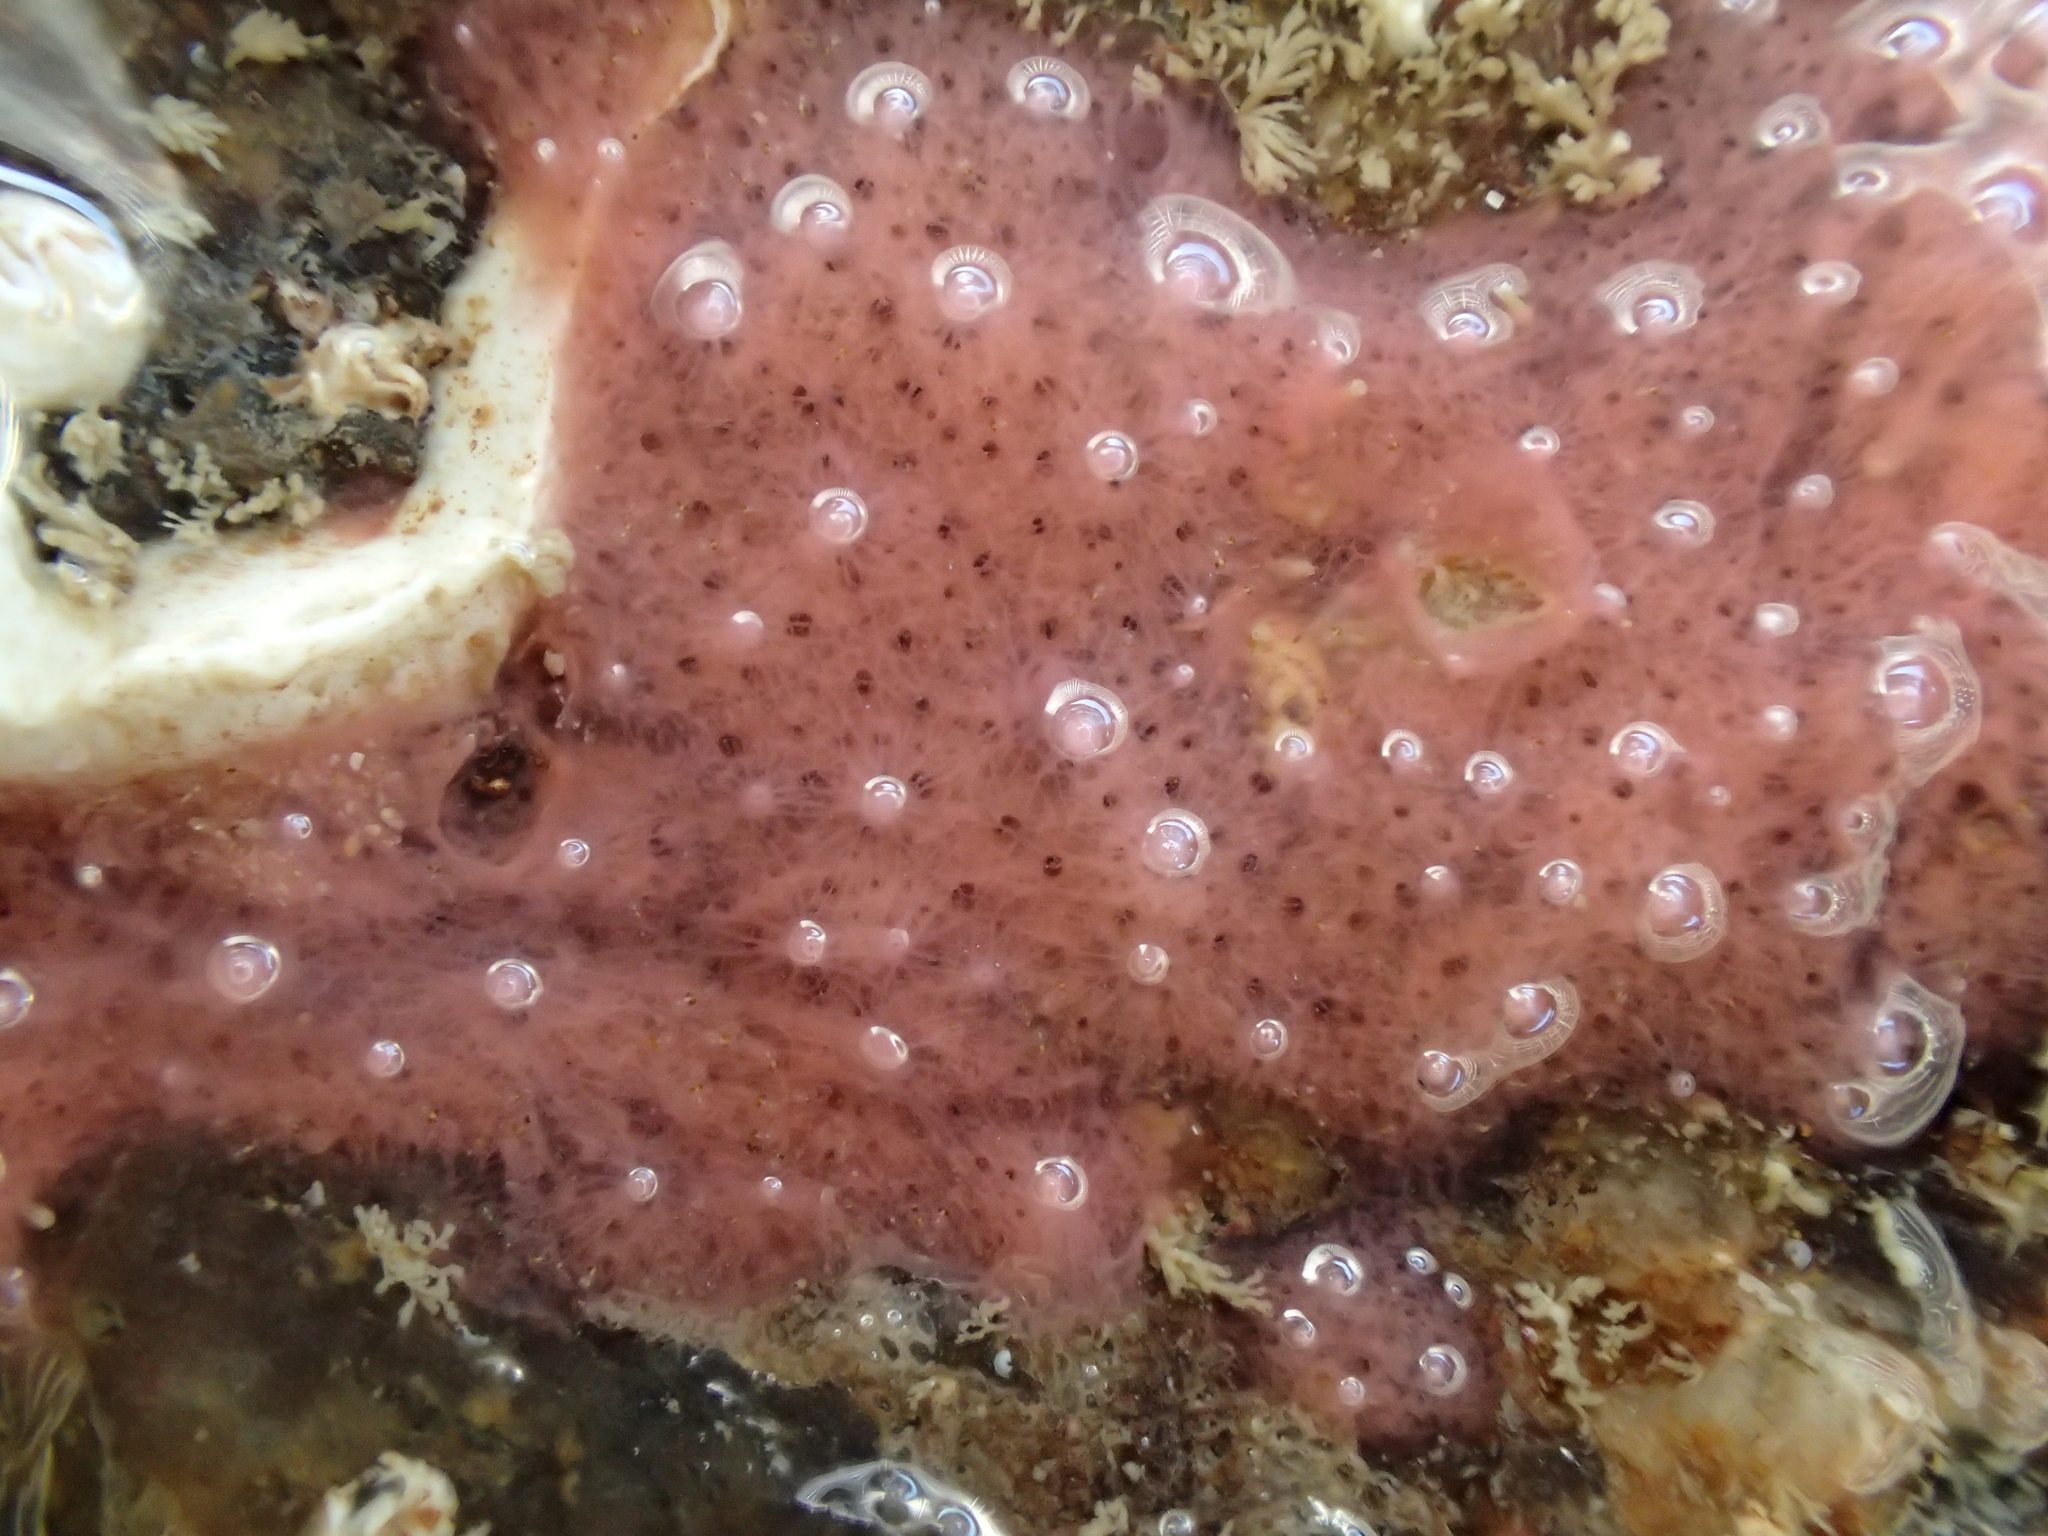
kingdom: Animalia
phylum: Porifera
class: Demospongiae
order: Dendroceratida
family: Darwinellidae
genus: Aplysilla
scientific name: Aplysilla rosea
